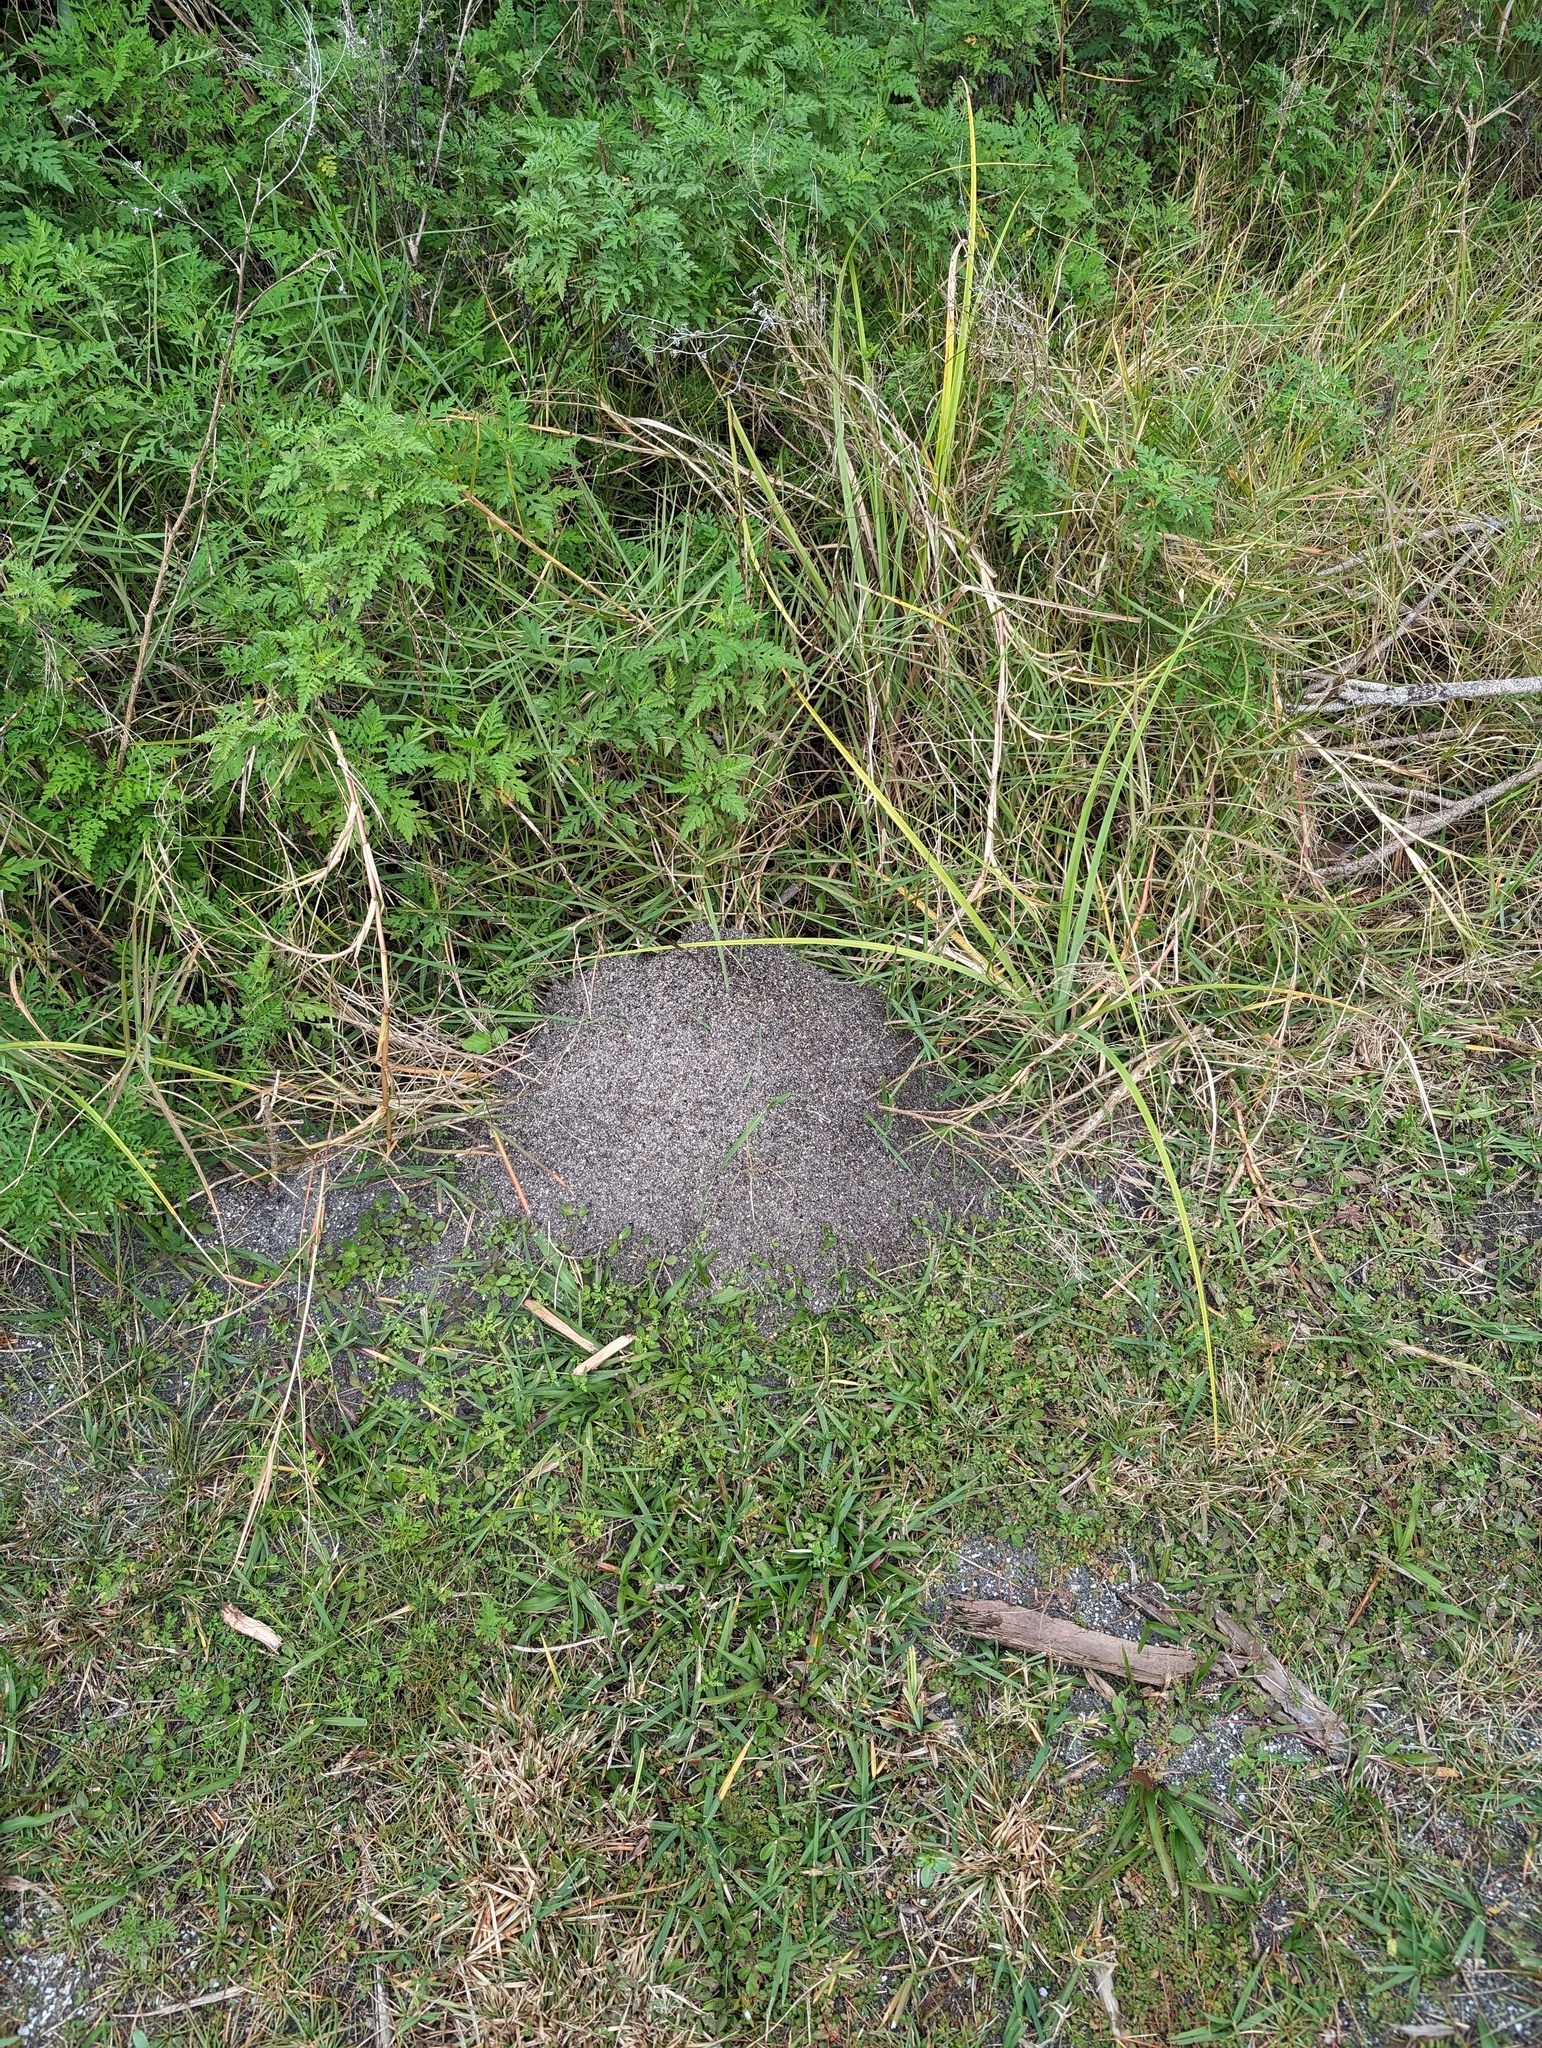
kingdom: Animalia
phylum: Arthropoda
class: Insecta
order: Hymenoptera
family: Formicidae
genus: Solenopsis
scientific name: Solenopsis invicta
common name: Red imported fire ant
